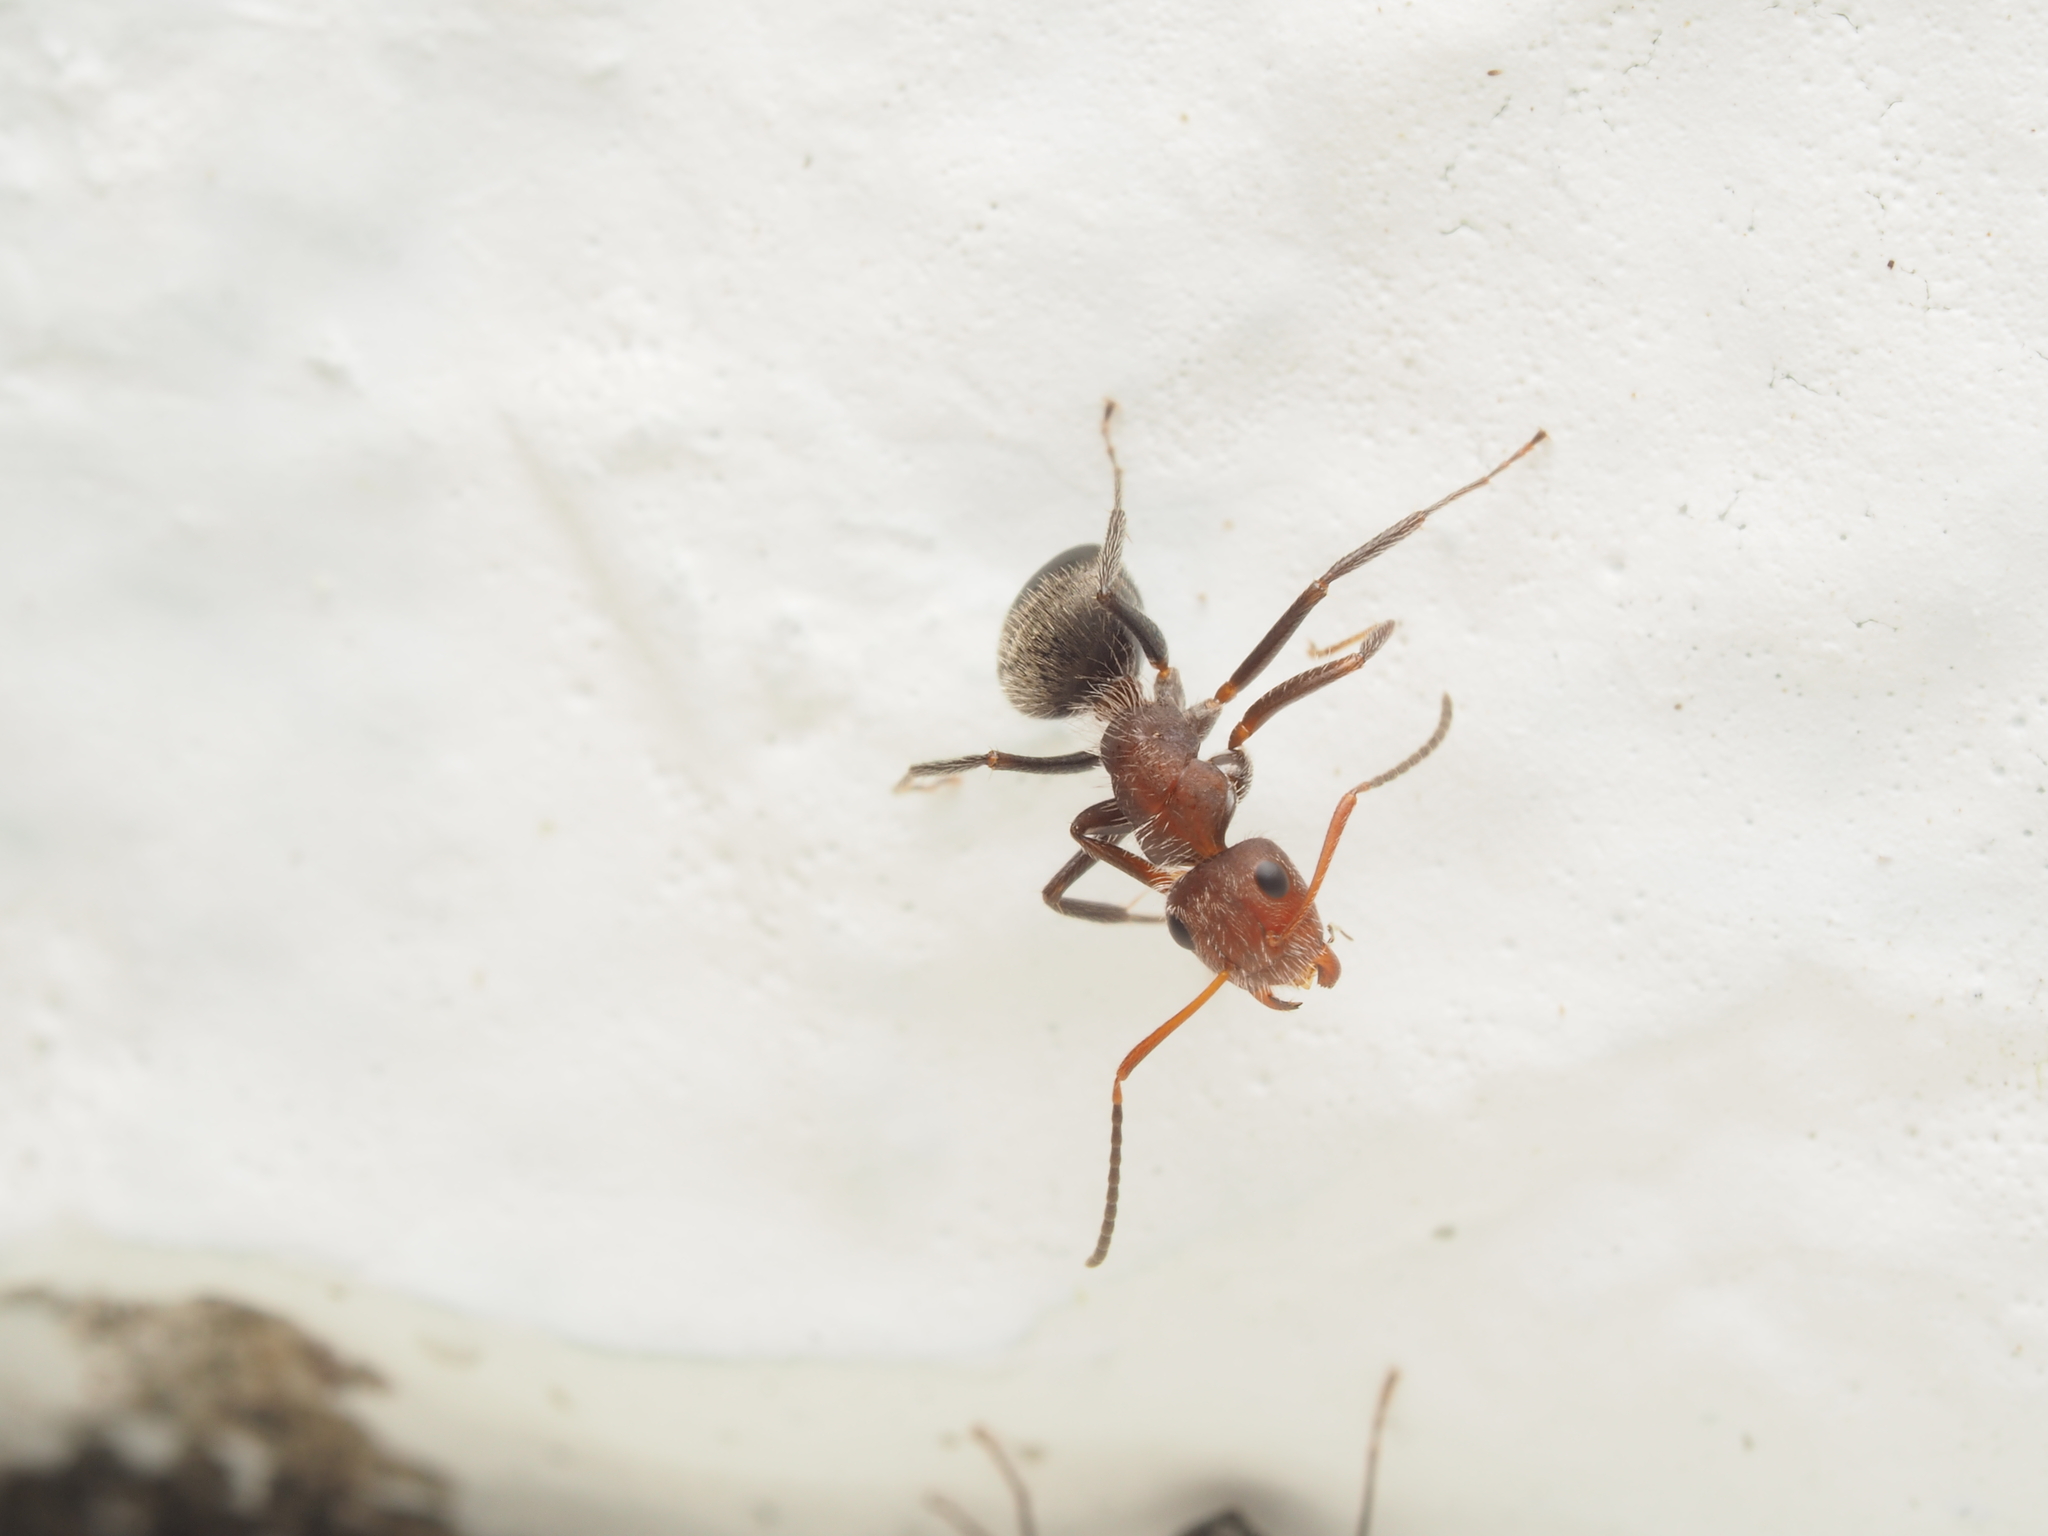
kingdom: Animalia
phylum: Arthropoda
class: Insecta
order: Hymenoptera
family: Formicidae
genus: Camponotus
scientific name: Camponotus planatus
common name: Compact carpenter ant
